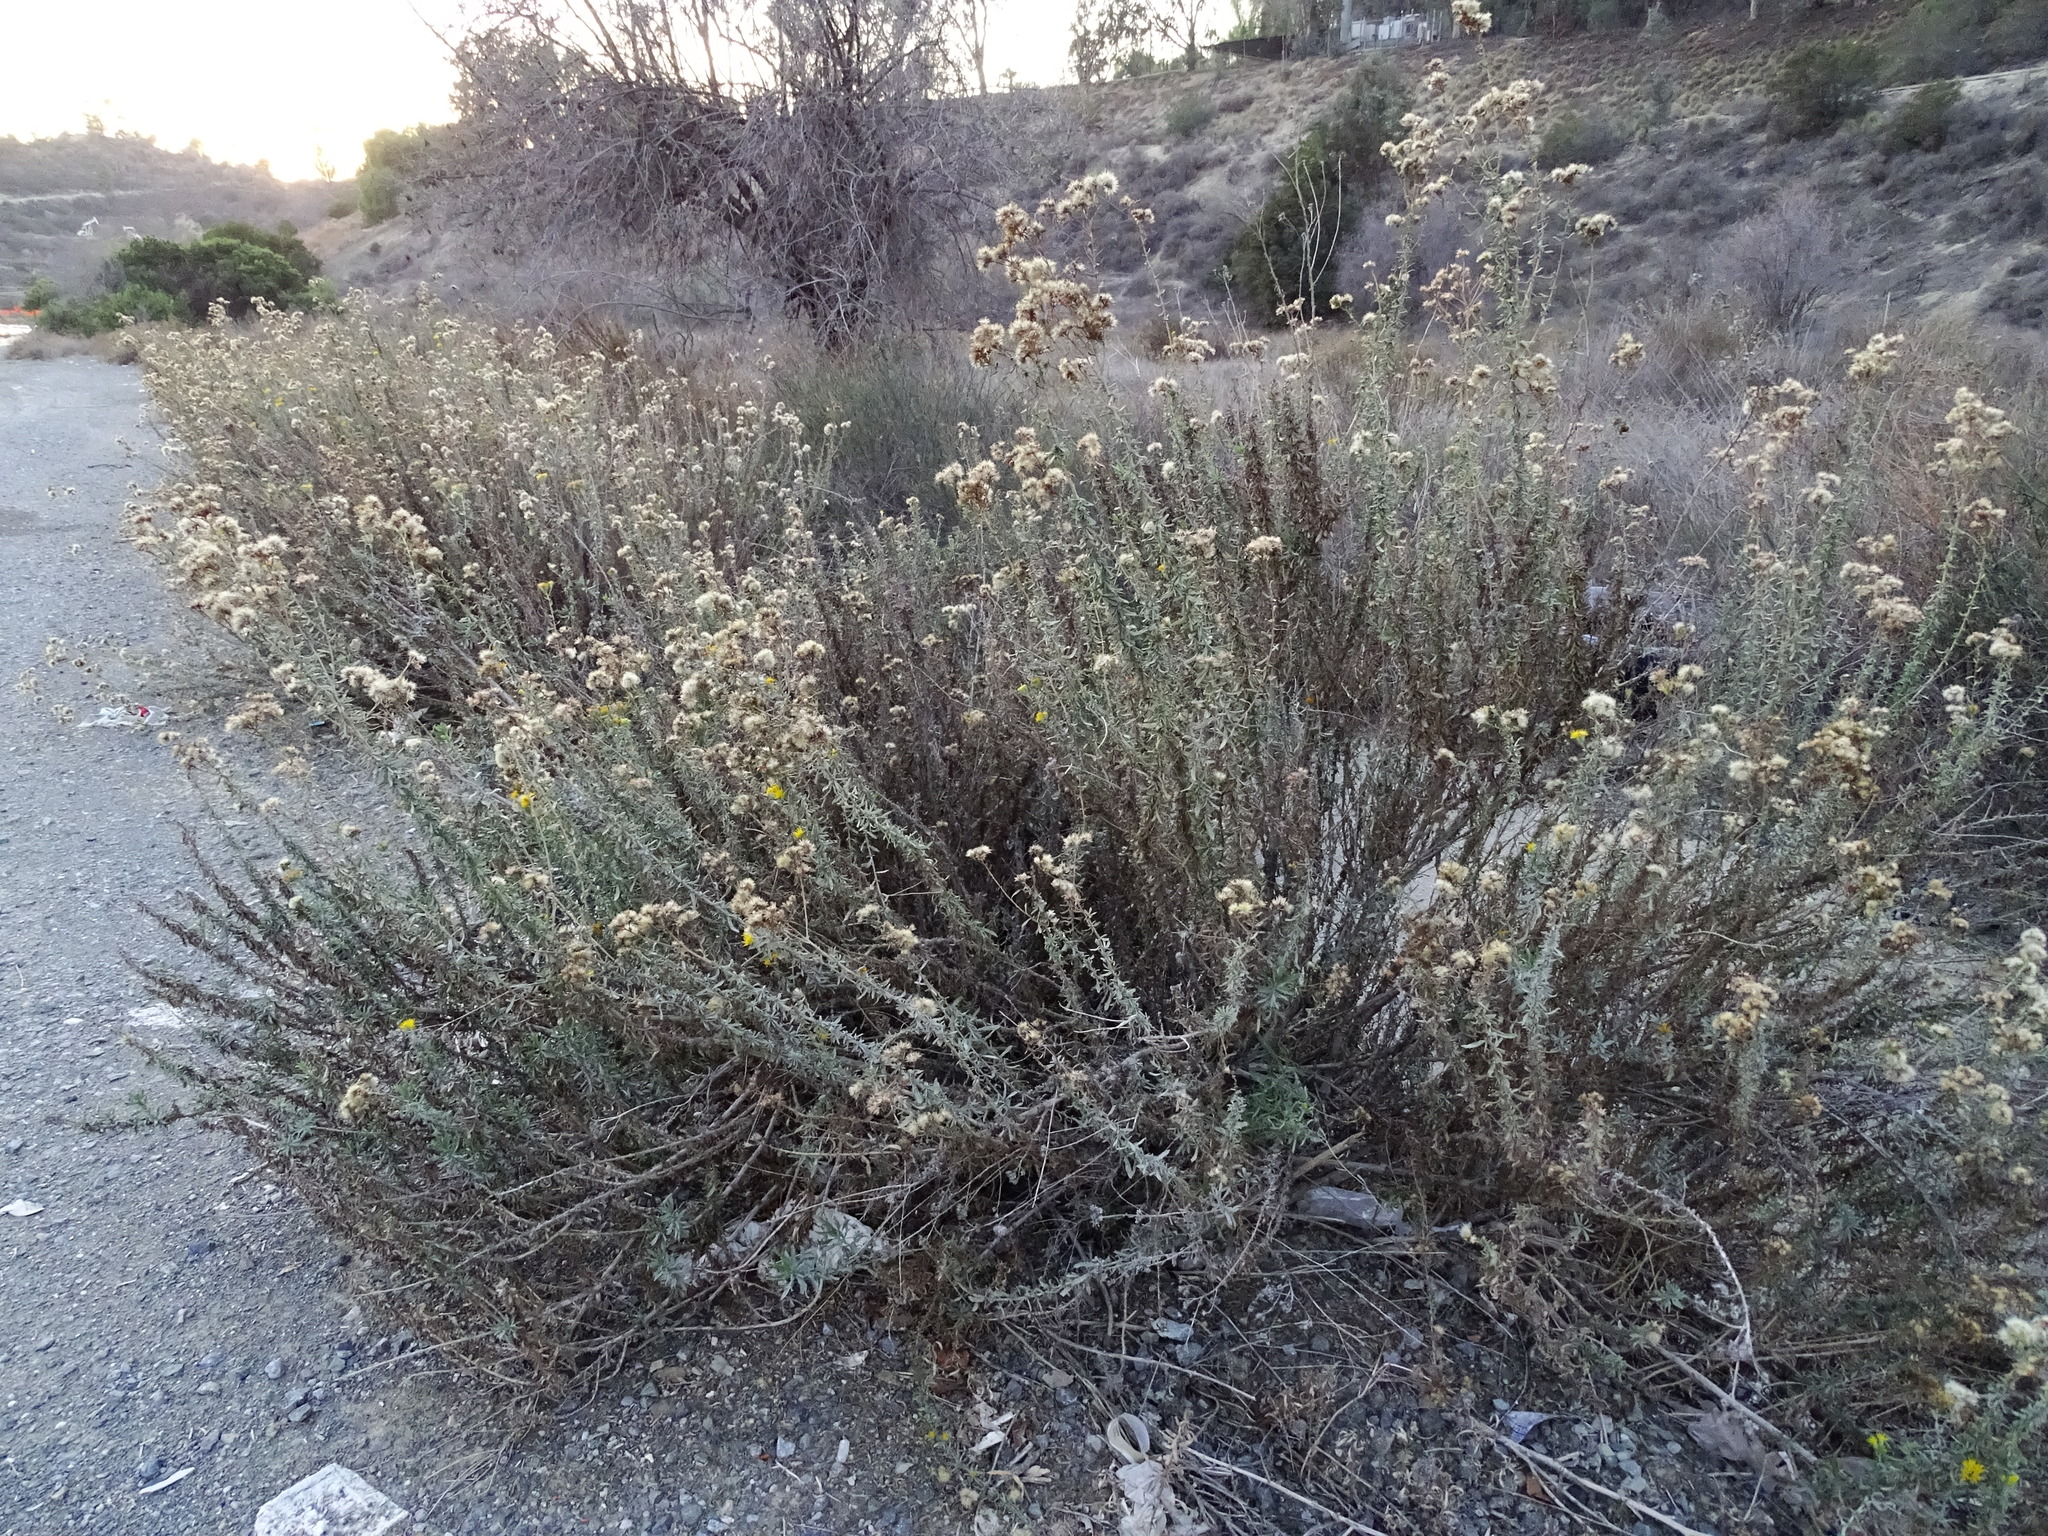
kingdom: Plantae
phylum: Tracheophyta
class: Magnoliopsida
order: Asterales
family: Asteraceae
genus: Isocoma
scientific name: Isocoma menziesii
